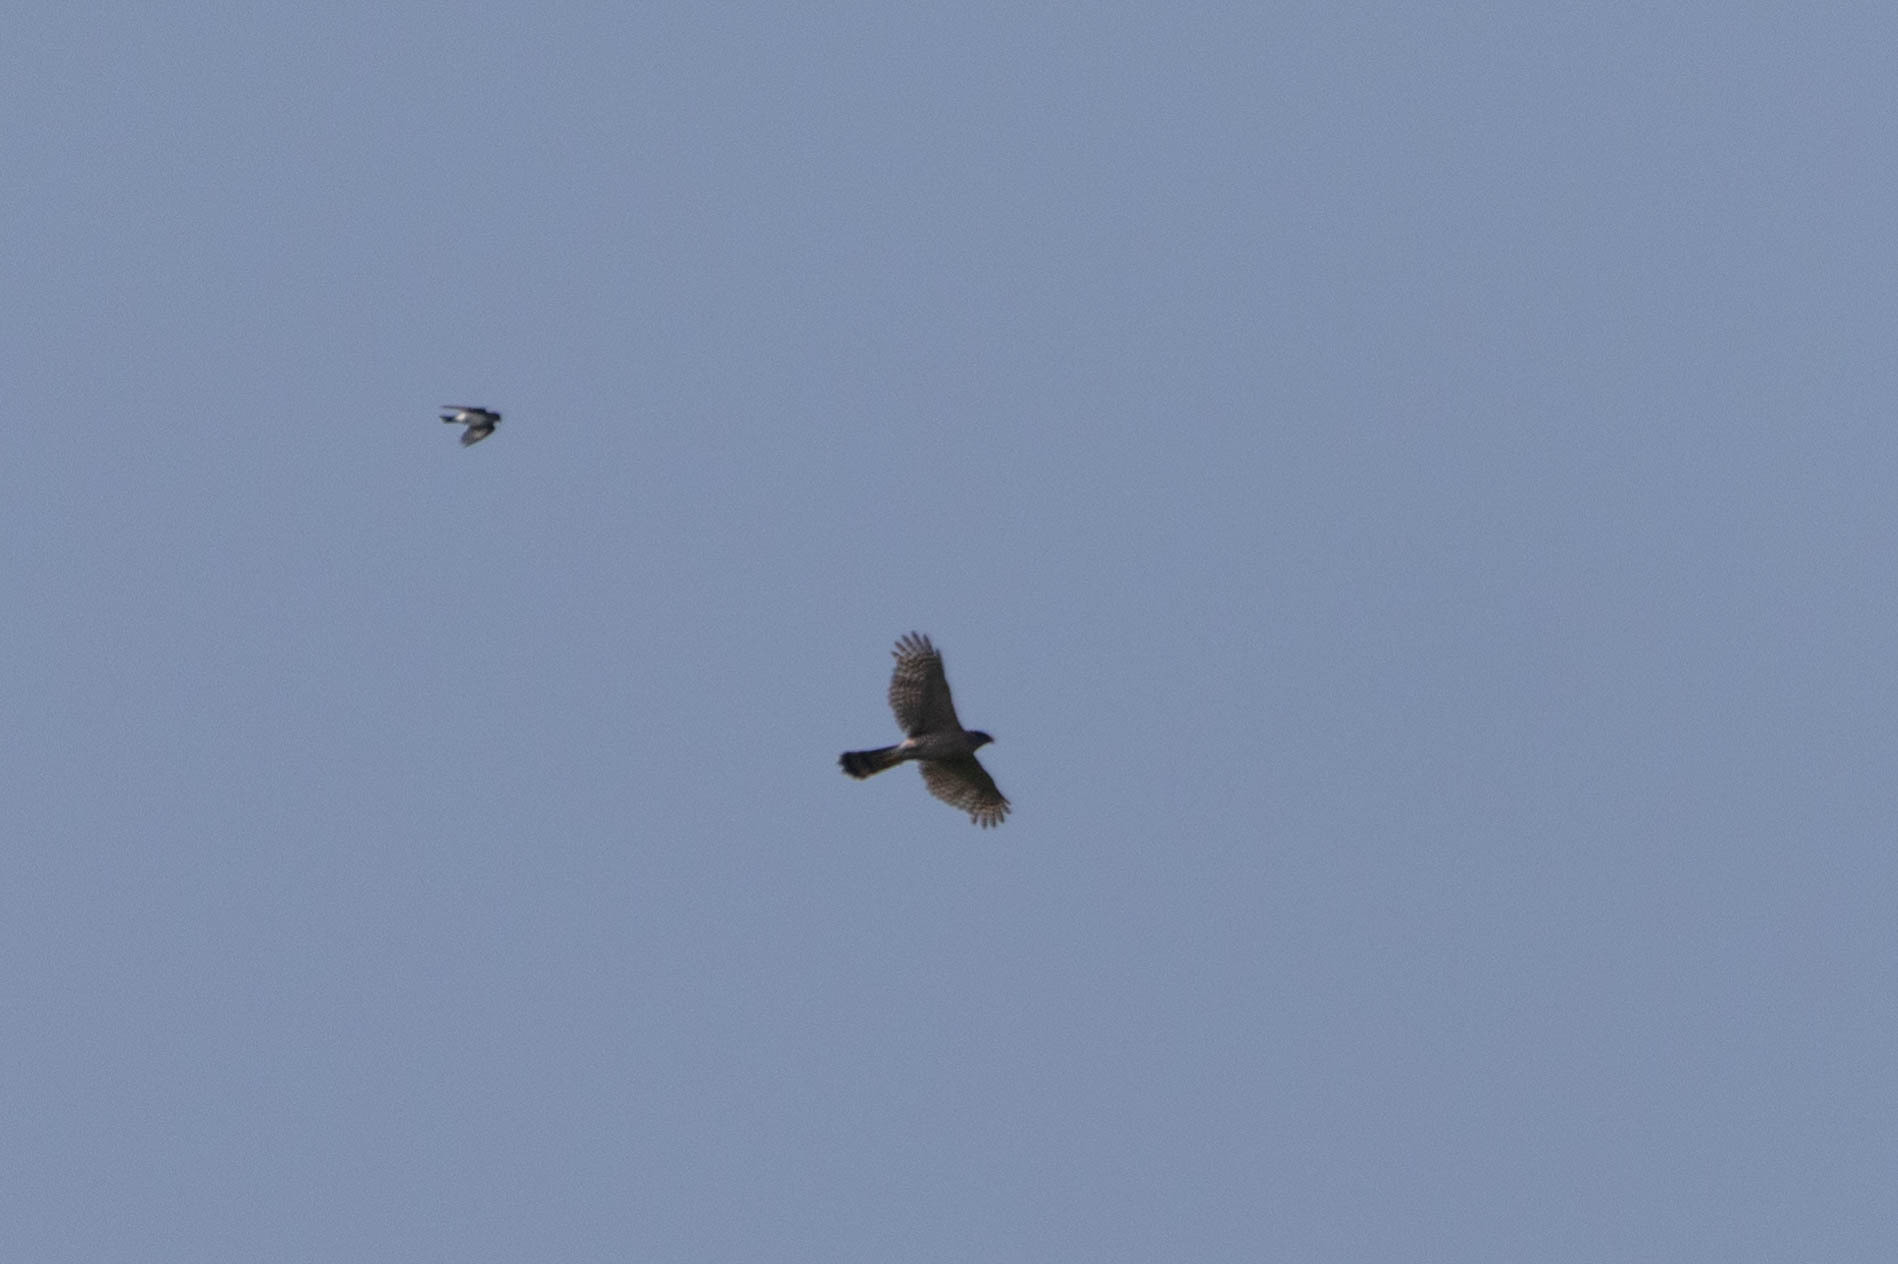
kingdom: Animalia
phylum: Chordata
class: Aves
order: Accipitriformes
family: Accipitridae
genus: Accipiter
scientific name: Accipiter cooperii
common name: Cooper's hawk
